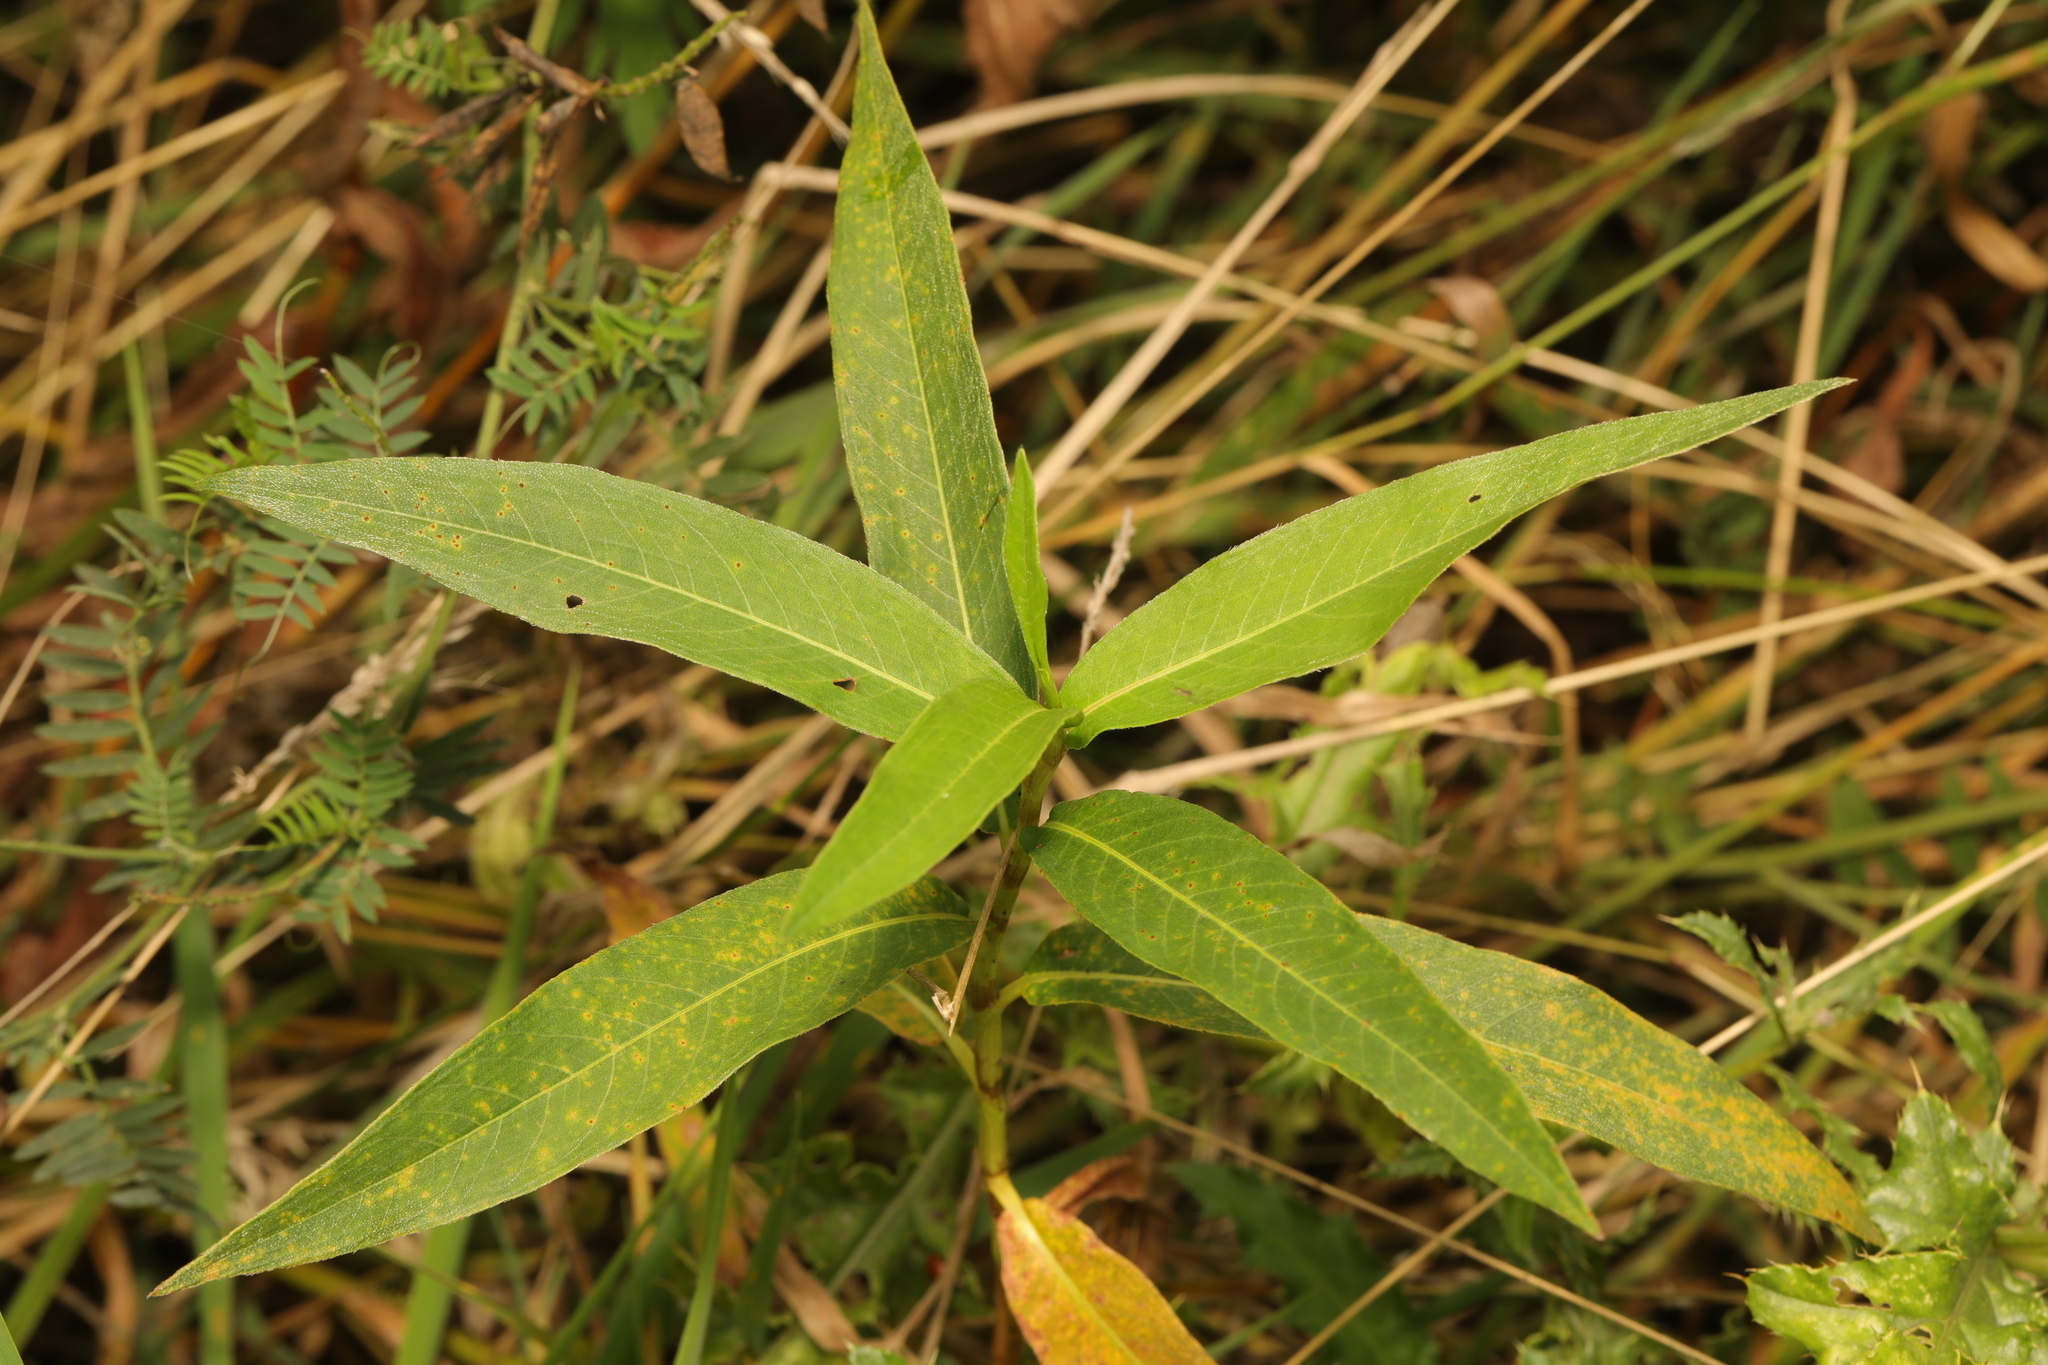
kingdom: Plantae
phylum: Tracheophyta
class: Magnoliopsida
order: Caryophyllales
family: Polygonaceae
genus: Persicaria
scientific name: Persicaria amphibia
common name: Amphibious bistort
